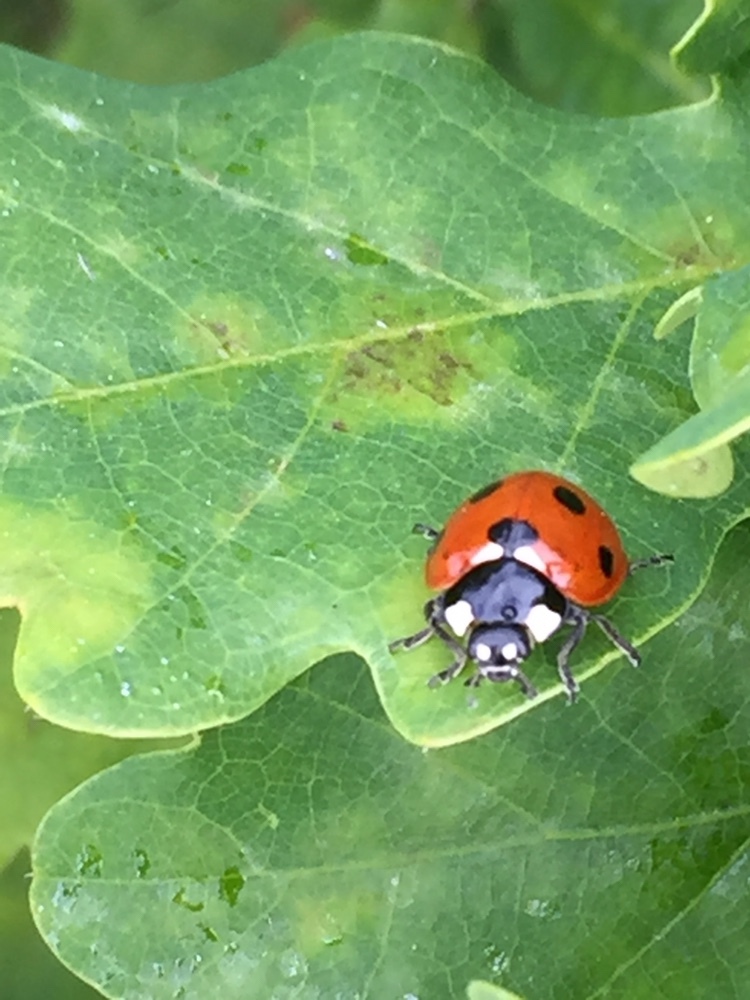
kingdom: Animalia
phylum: Arthropoda
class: Insecta
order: Coleoptera
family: Coccinellidae
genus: Coccinella
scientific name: Coccinella septempunctata
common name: Sevenspotted lady beetle
